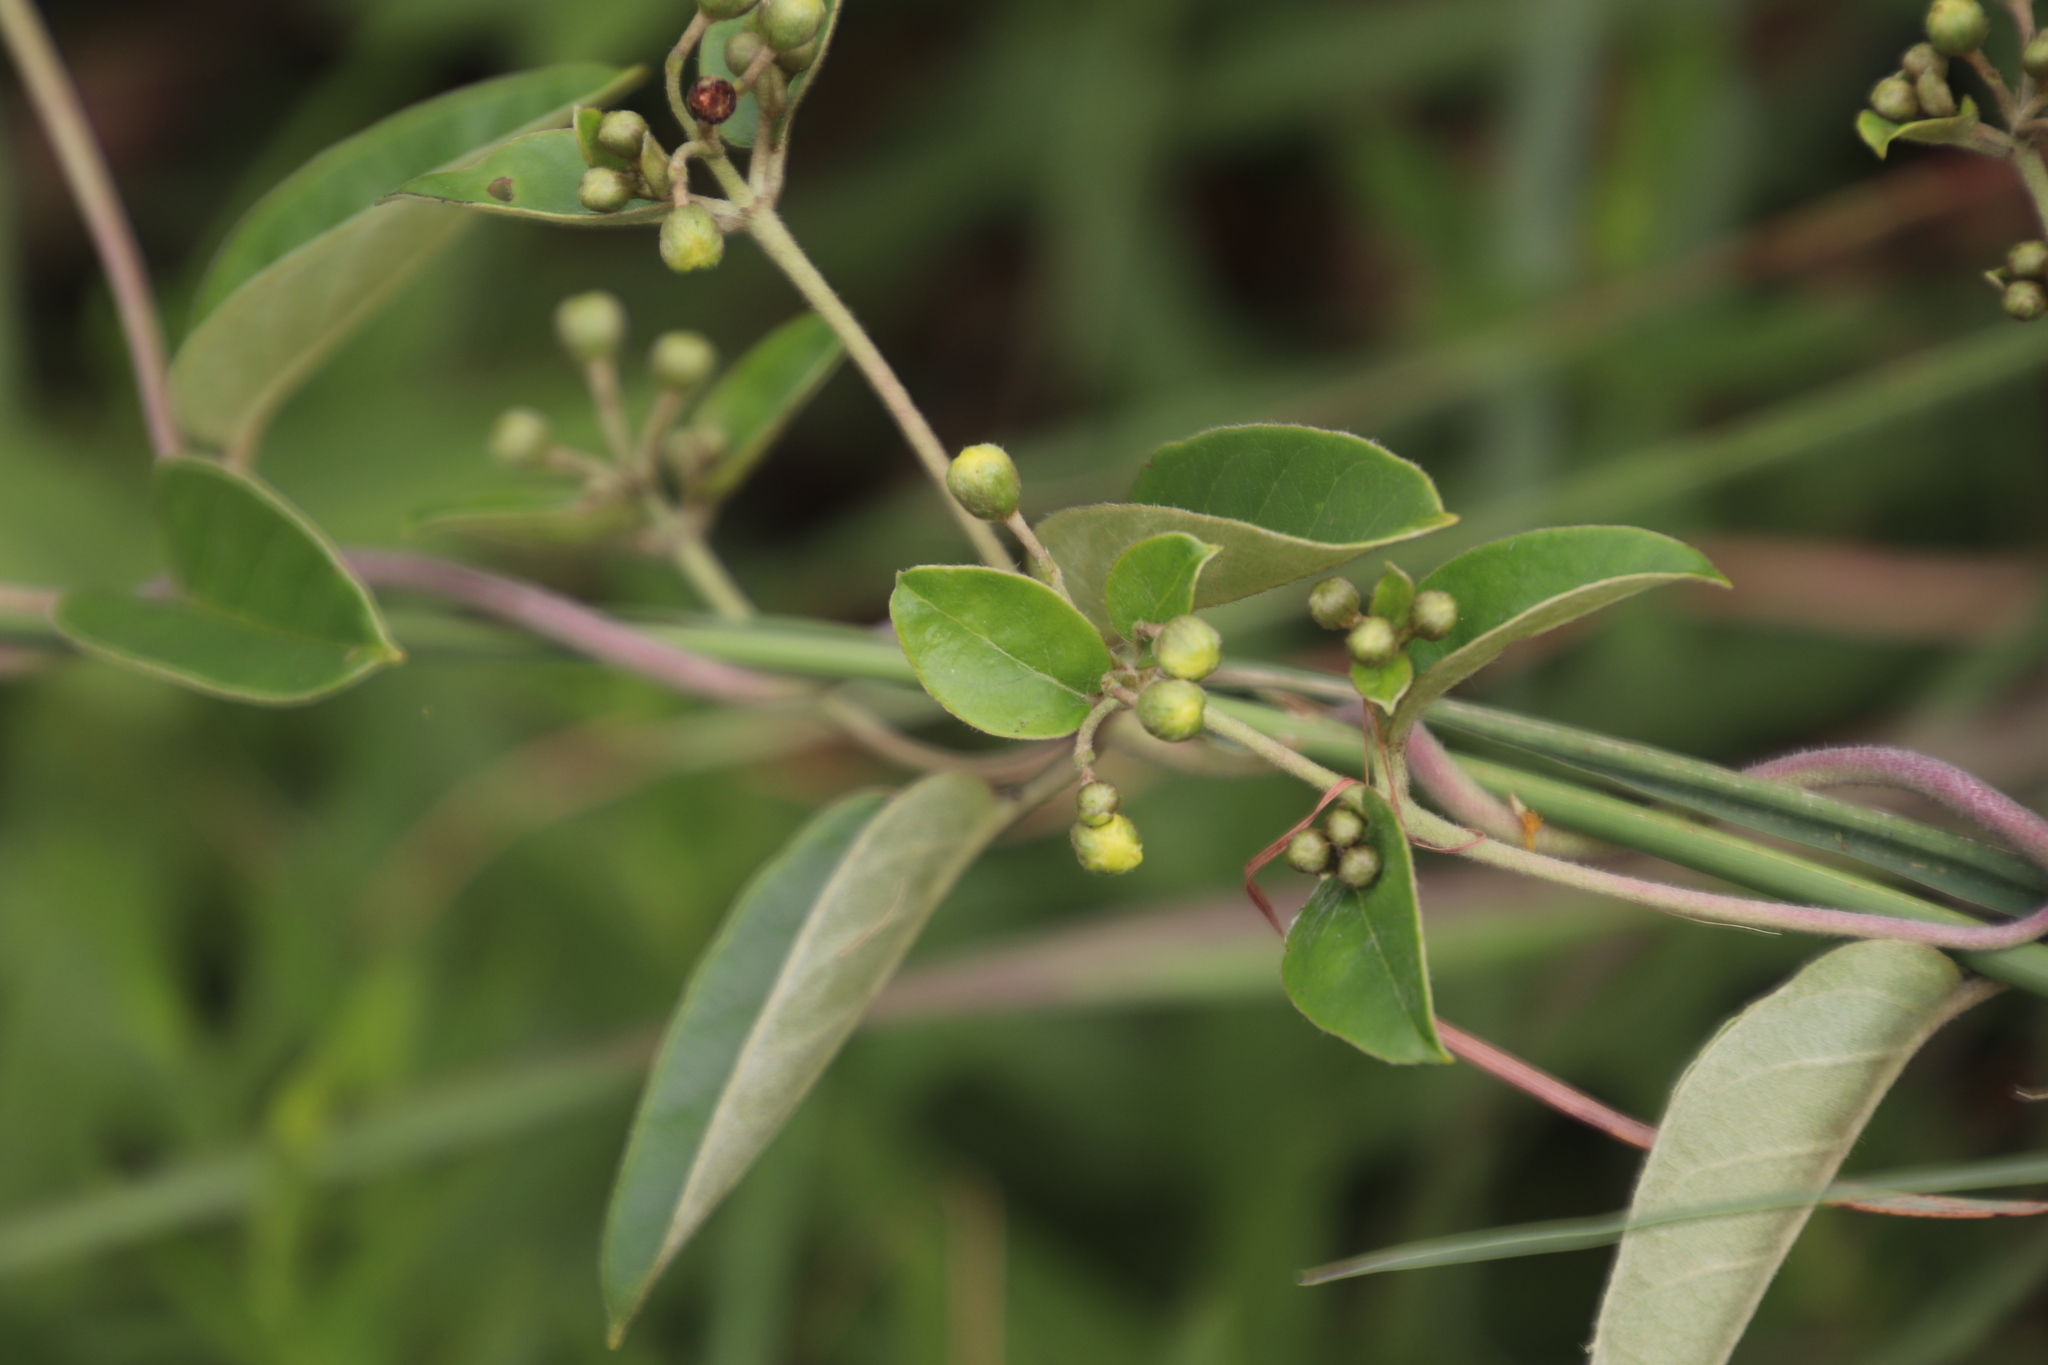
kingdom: Plantae
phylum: Tracheophyta
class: Magnoliopsida
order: Malpighiales
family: Malpighiaceae
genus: Sphedamnocarpus
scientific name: Sphedamnocarpus pruriens
